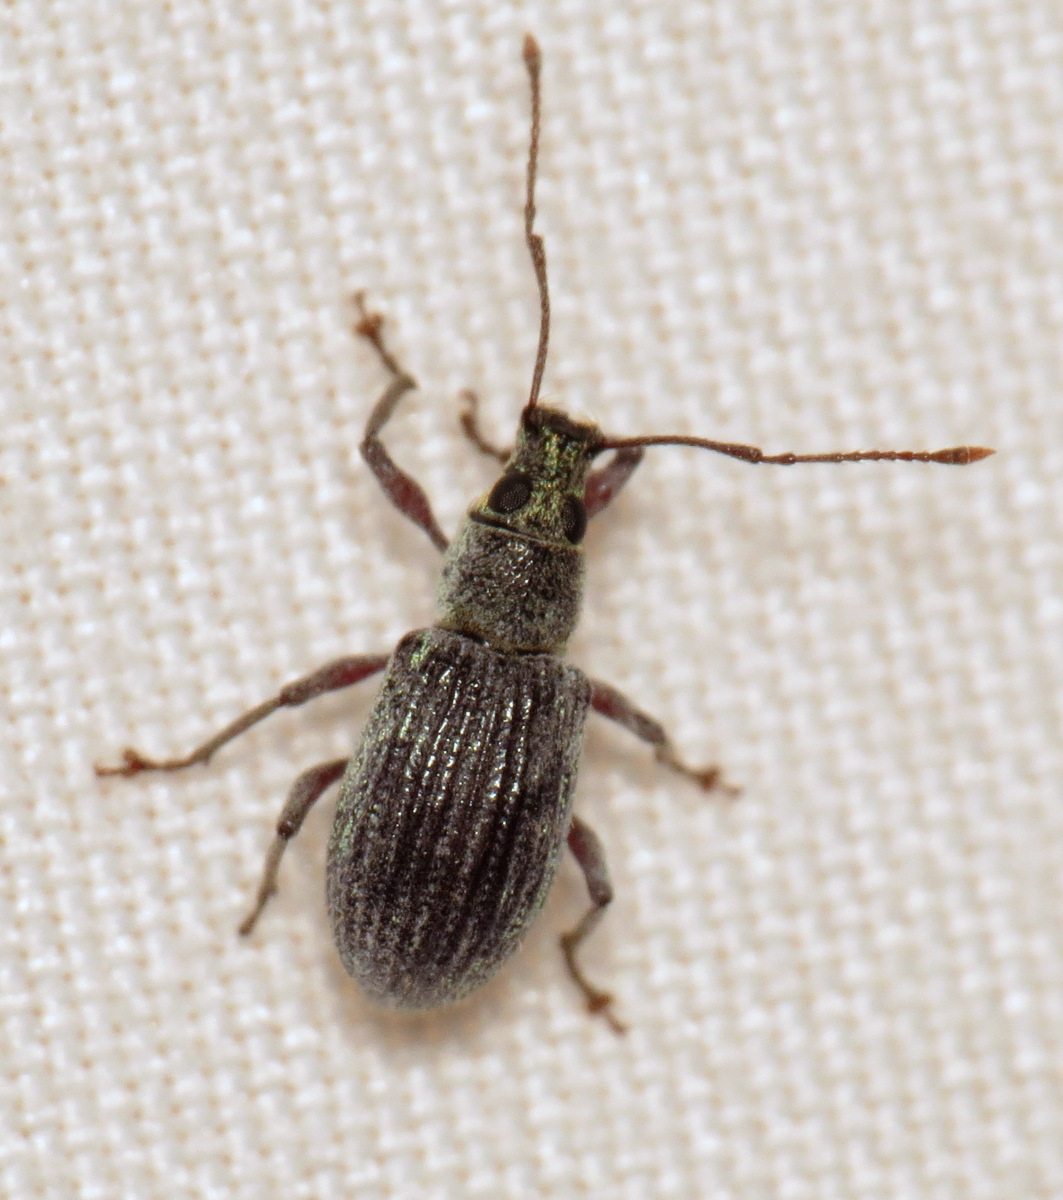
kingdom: Animalia
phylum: Arthropoda
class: Insecta
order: Coleoptera
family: Curculionidae
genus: Cyrtepistomus
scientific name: Cyrtepistomus castaneus
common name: Weevil
